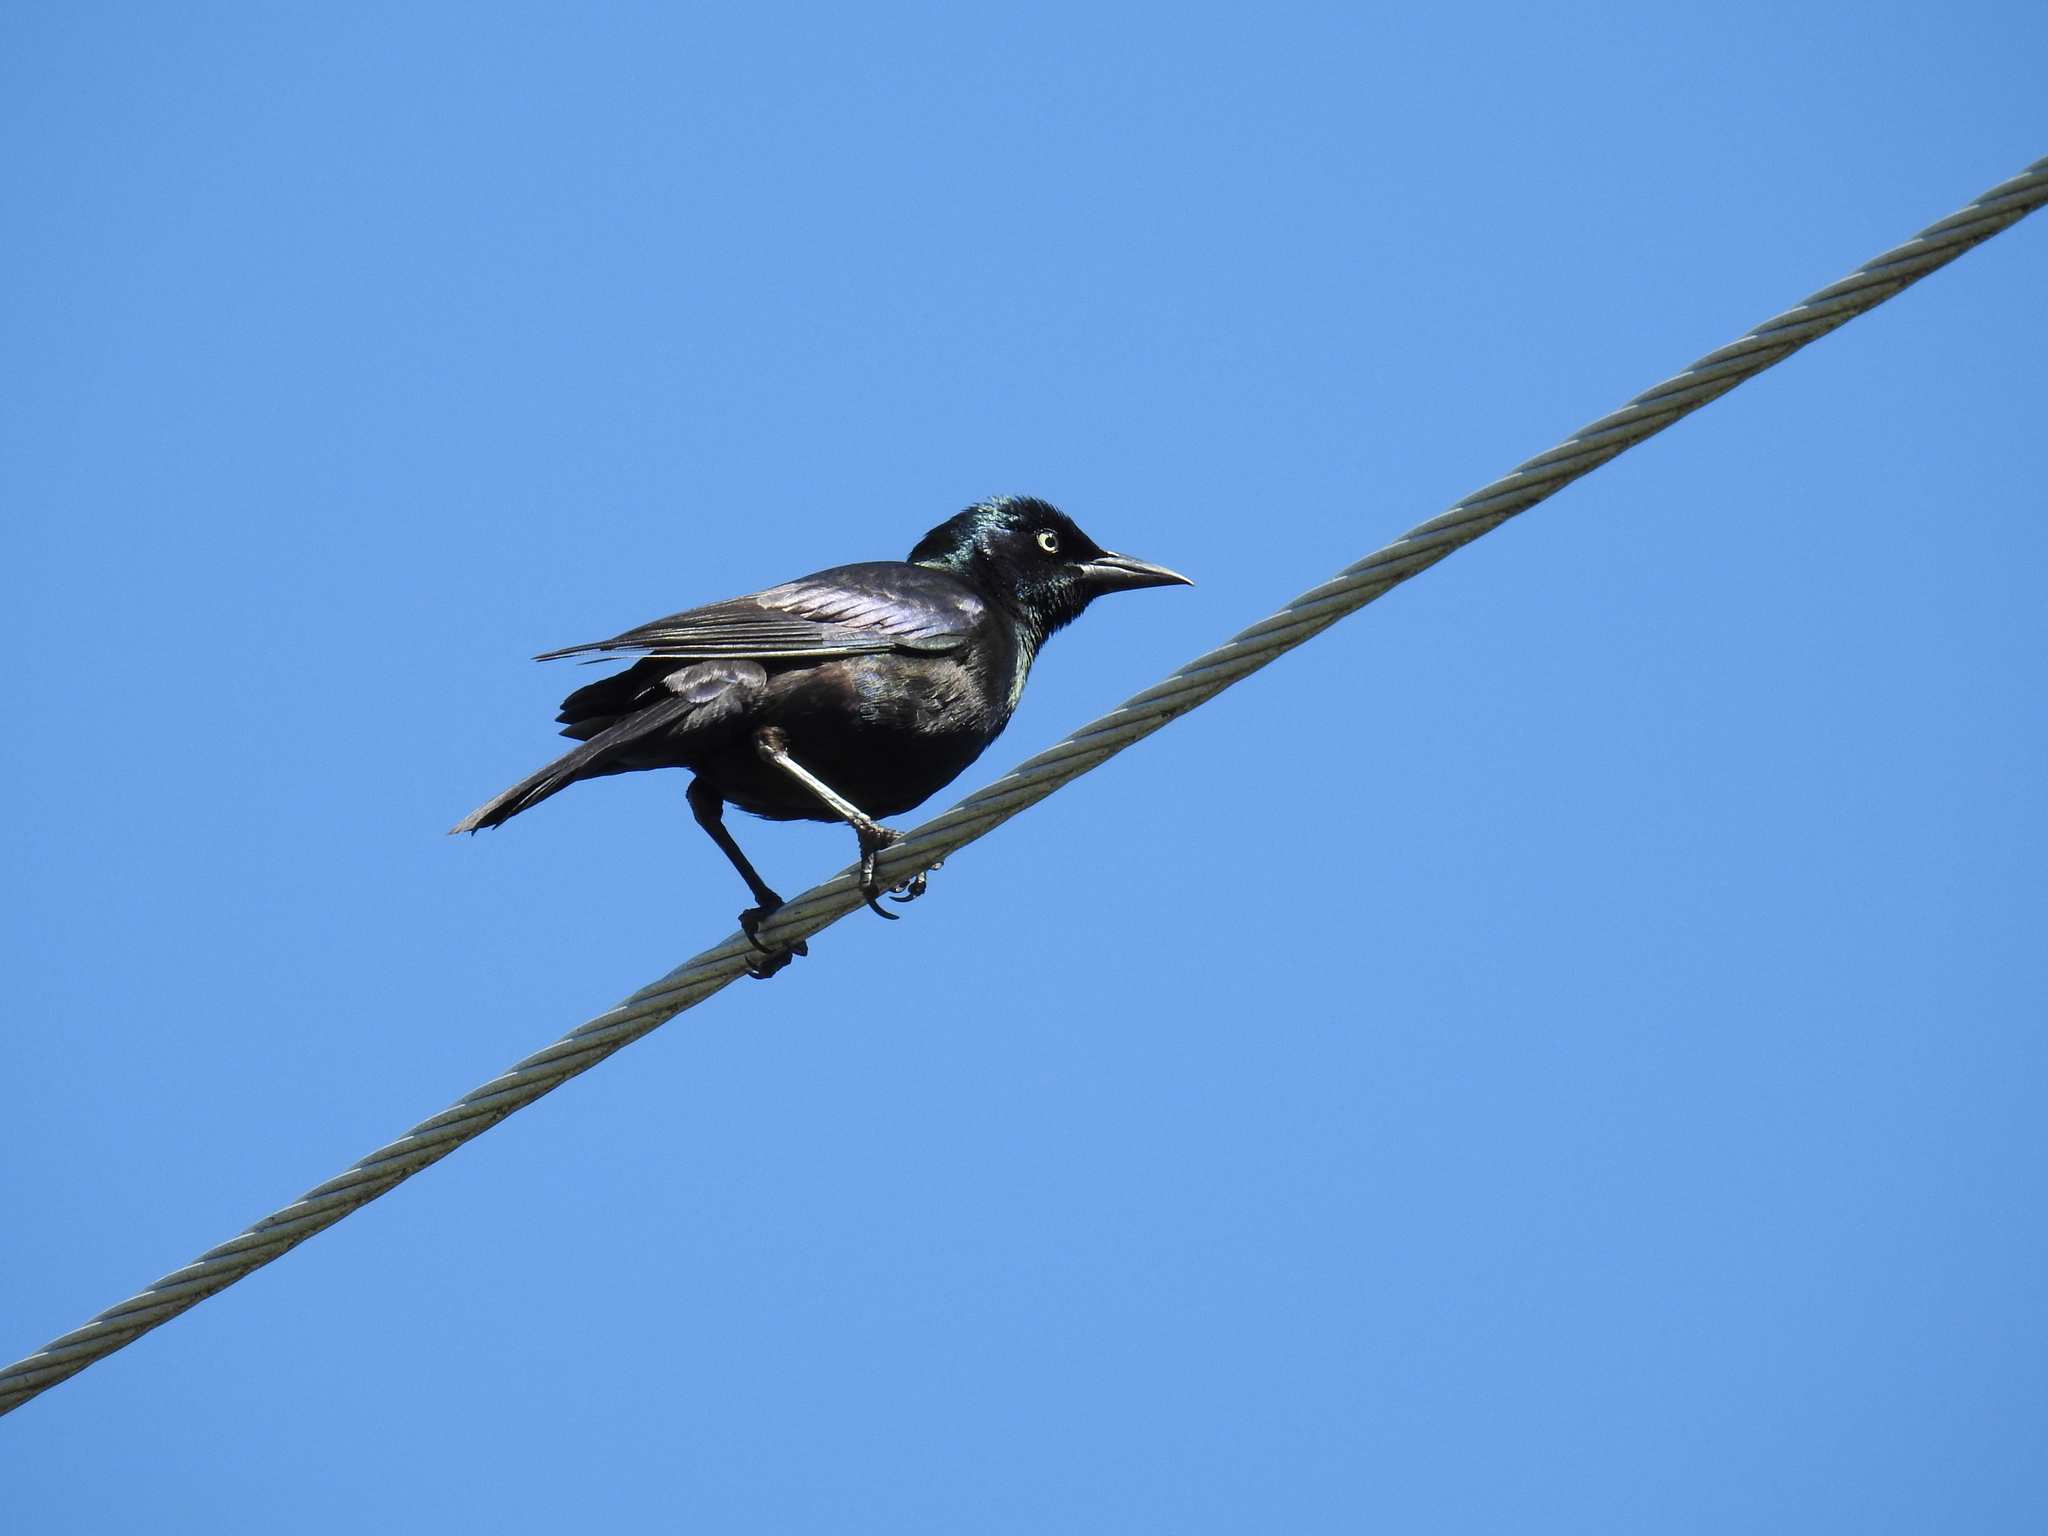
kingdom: Animalia
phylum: Chordata
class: Aves
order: Passeriformes
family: Icteridae
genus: Quiscalus
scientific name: Quiscalus quiscula
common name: Common grackle
